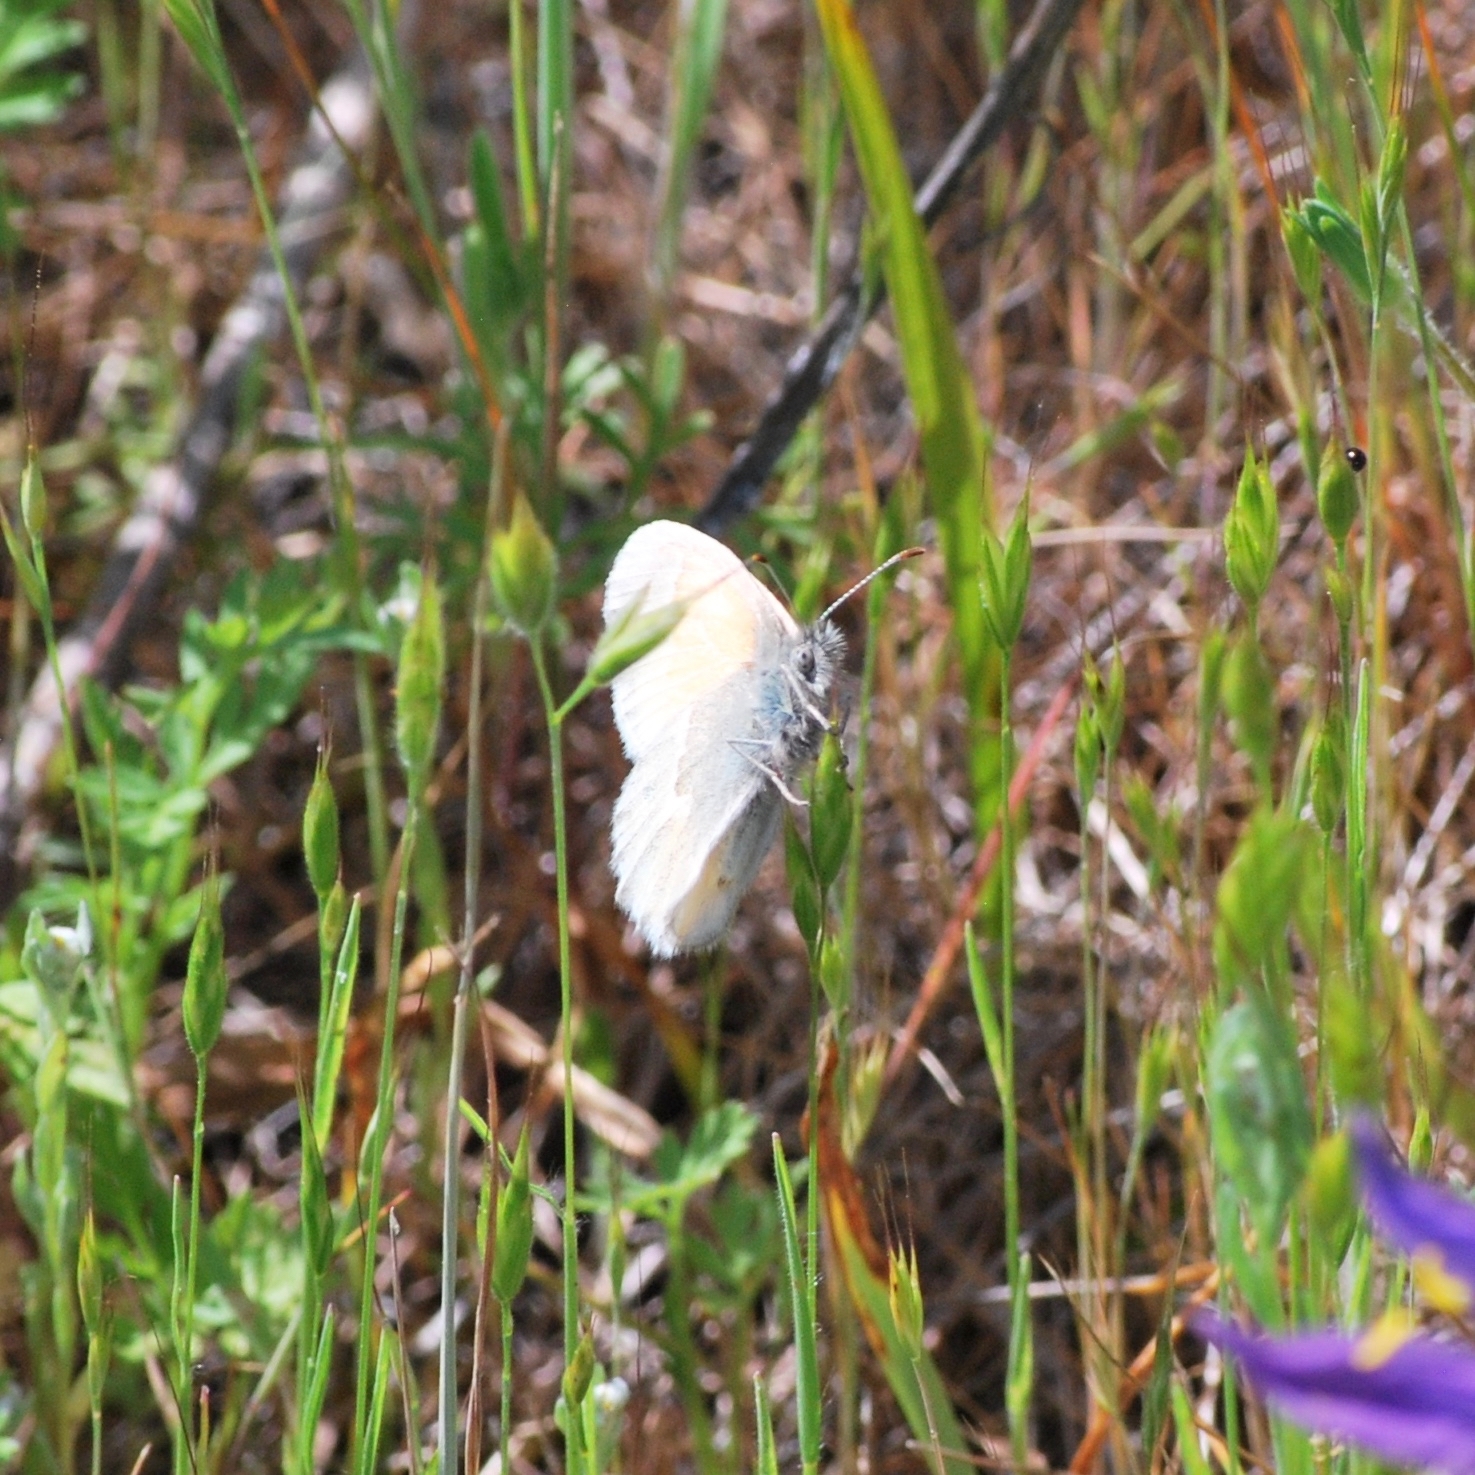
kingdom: Animalia
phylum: Arthropoda
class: Insecta
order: Lepidoptera
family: Nymphalidae
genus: Coenonympha
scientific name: Coenonympha california
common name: Common ringlet
